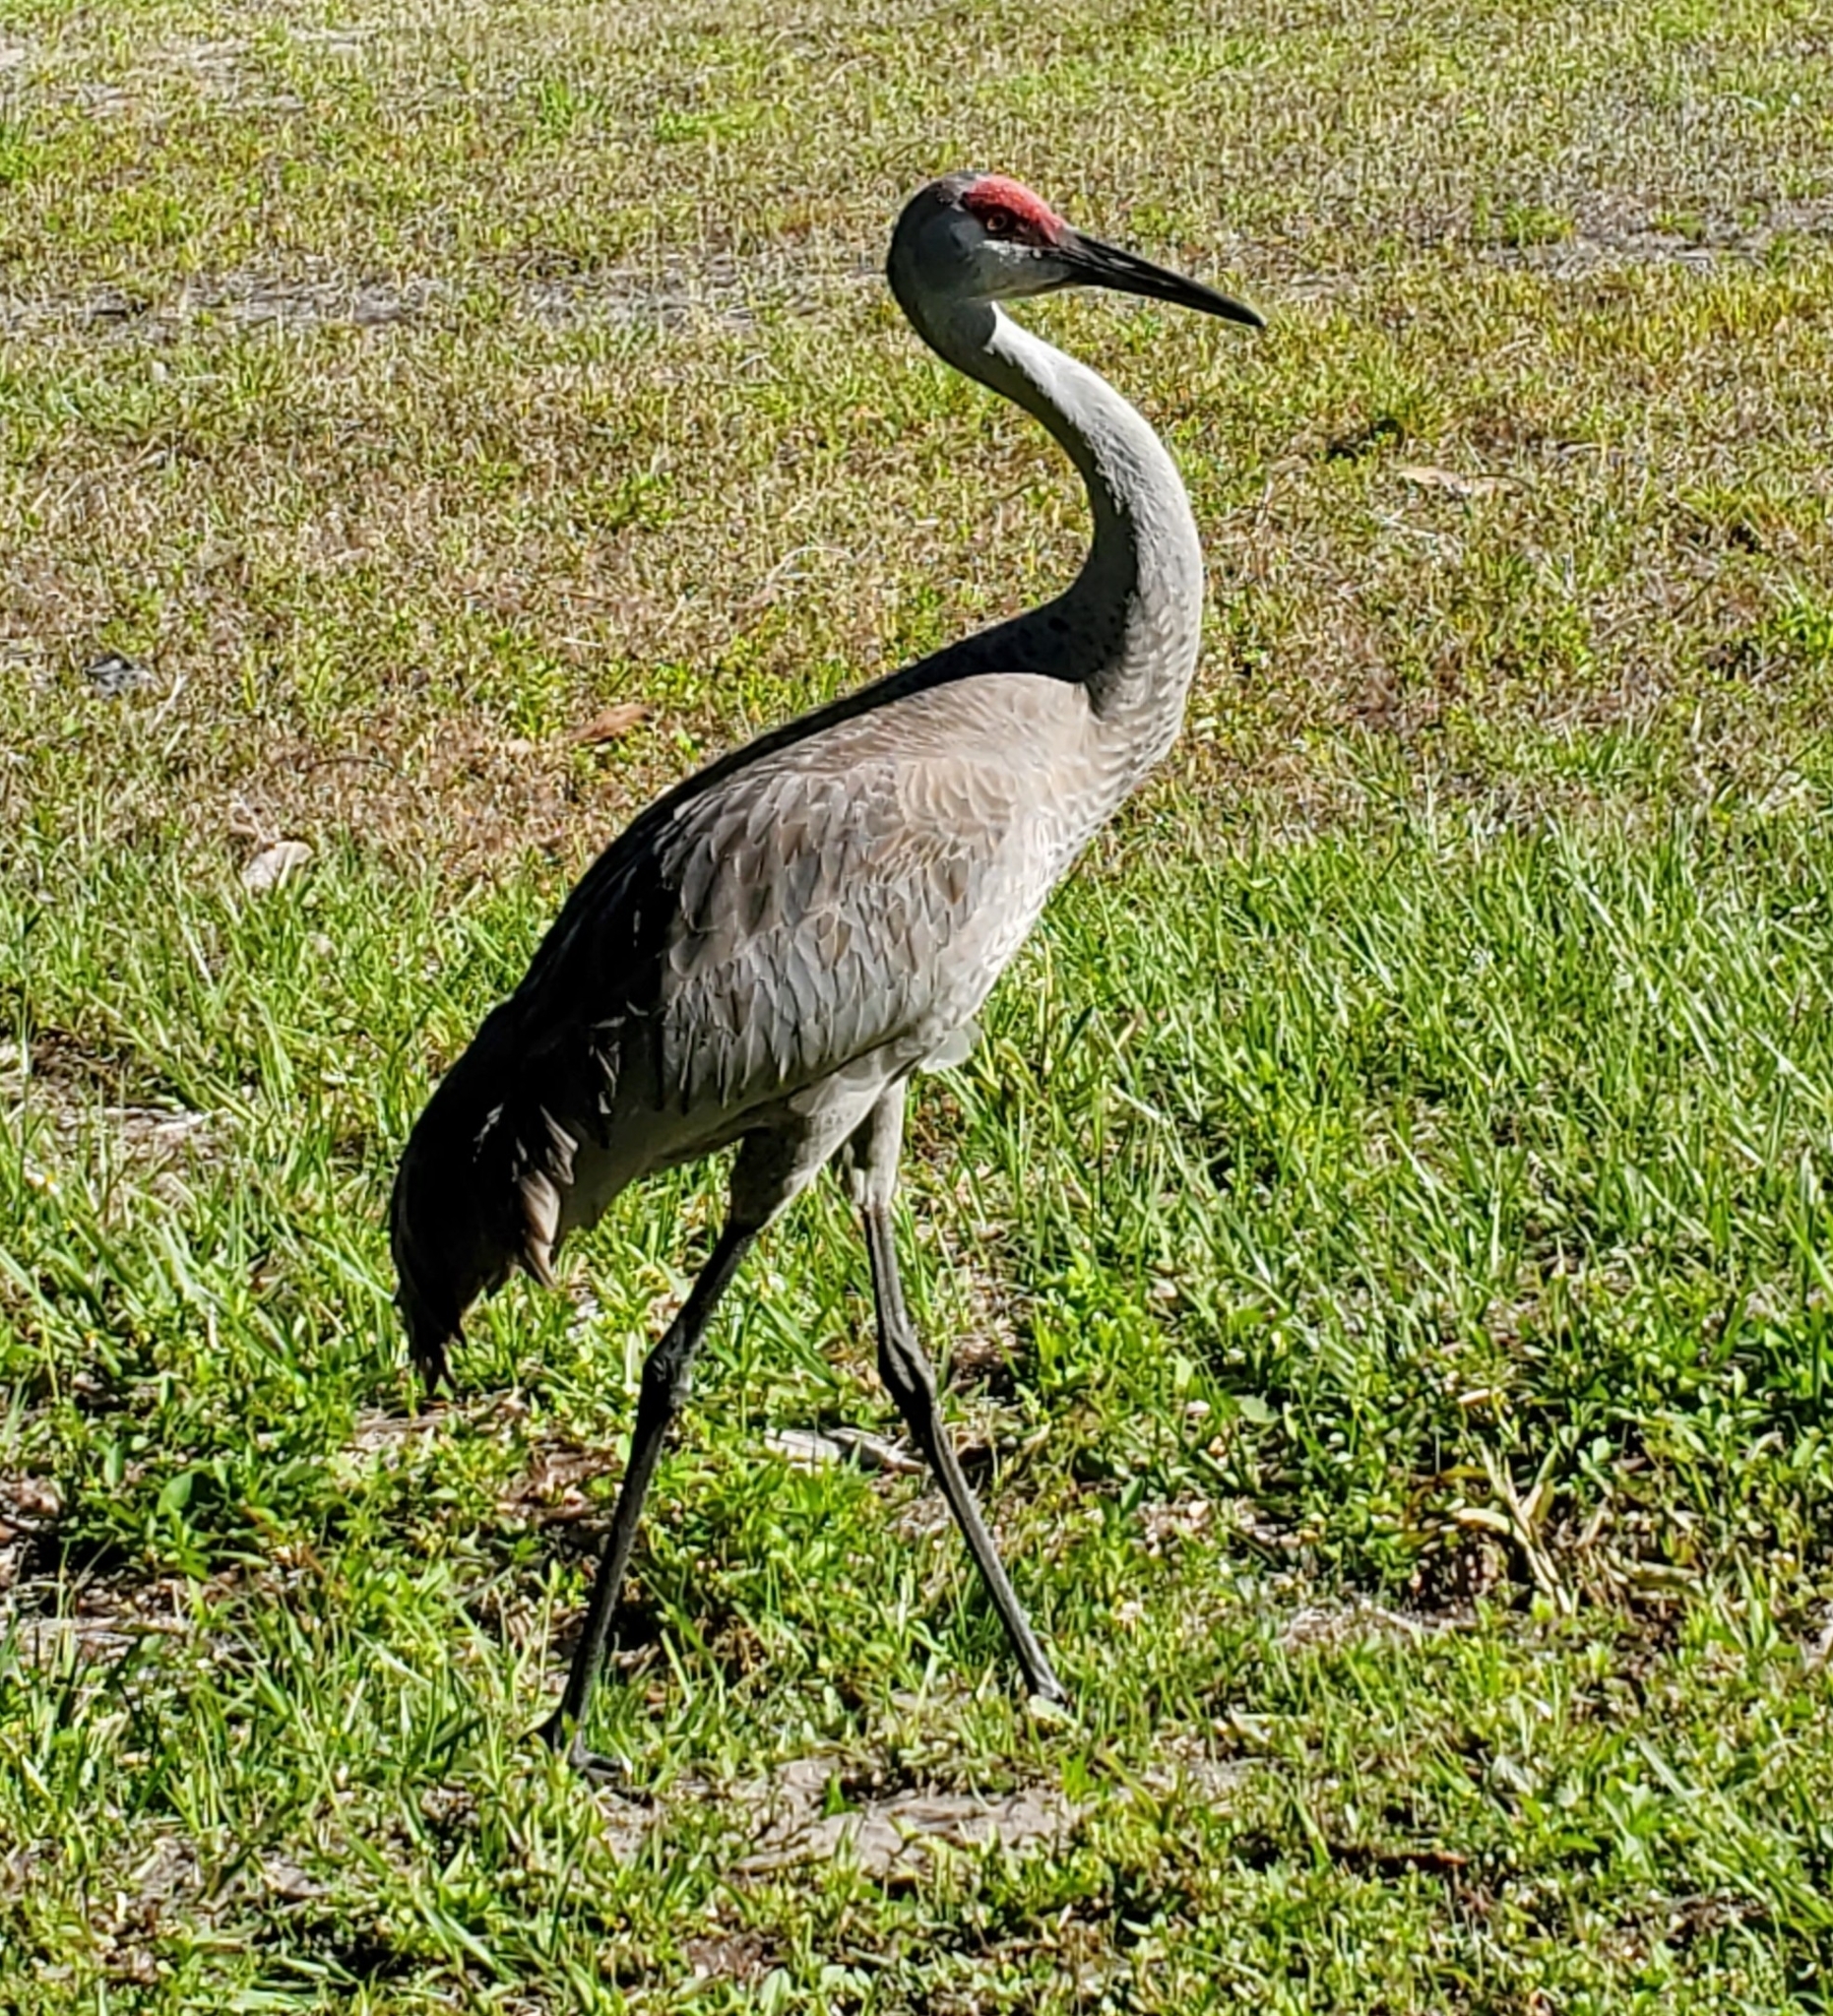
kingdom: Animalia
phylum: Chordata
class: Aves
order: Gruiformes
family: Gruidae
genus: Grus
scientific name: Grus canadensis
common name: Sandhill crane
